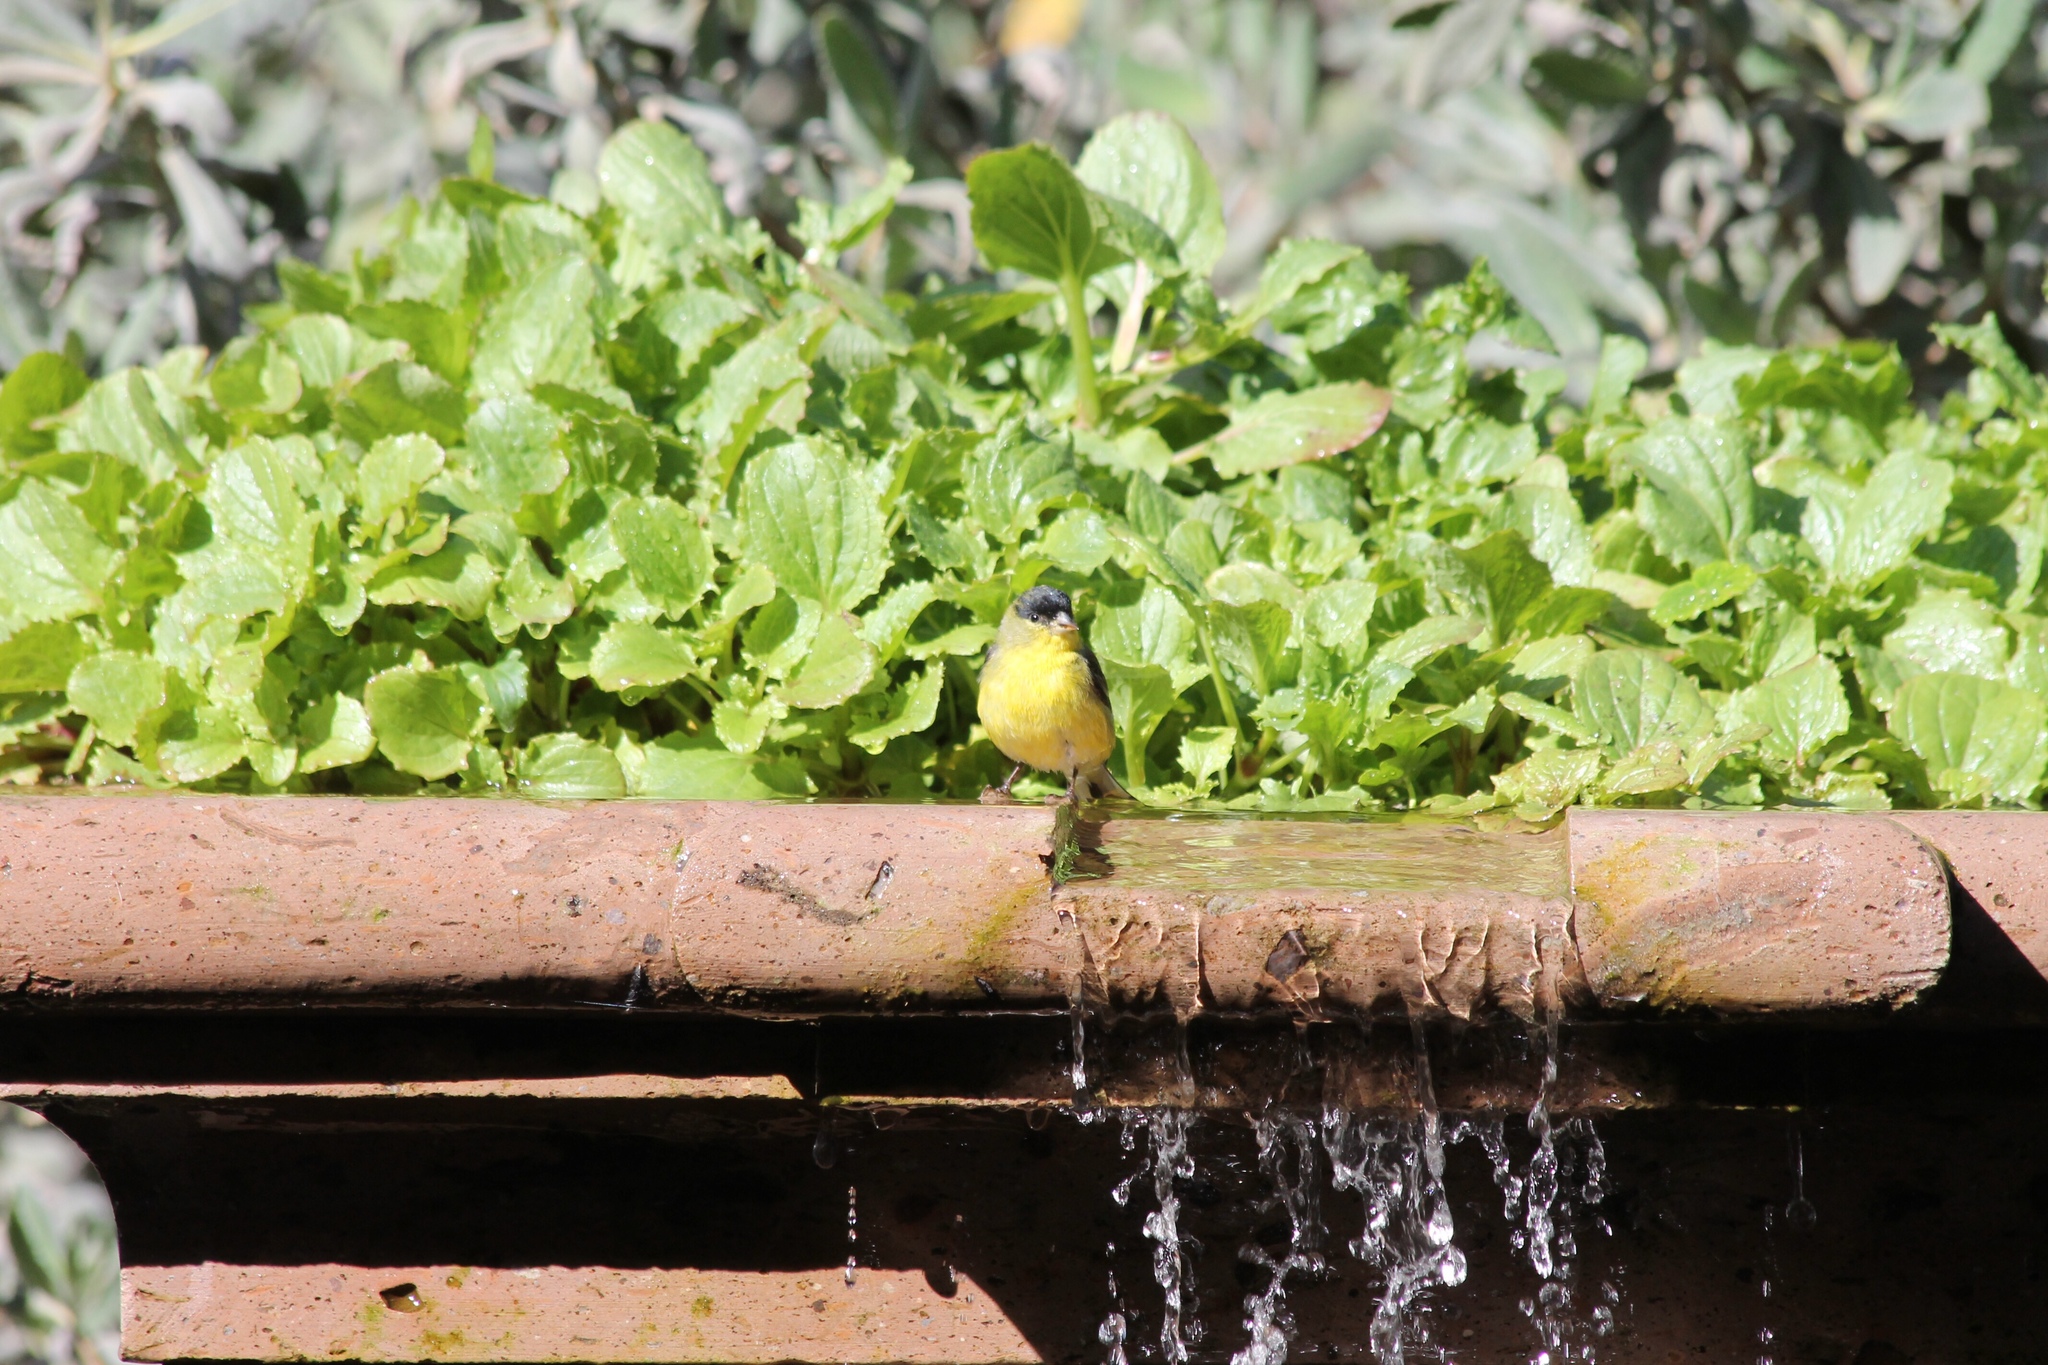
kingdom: Animalia
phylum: Chordata
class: Aves
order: Passeriformes
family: Fringillidae
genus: Spinus
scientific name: Spinus psaltria
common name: Lesser goldfinch
